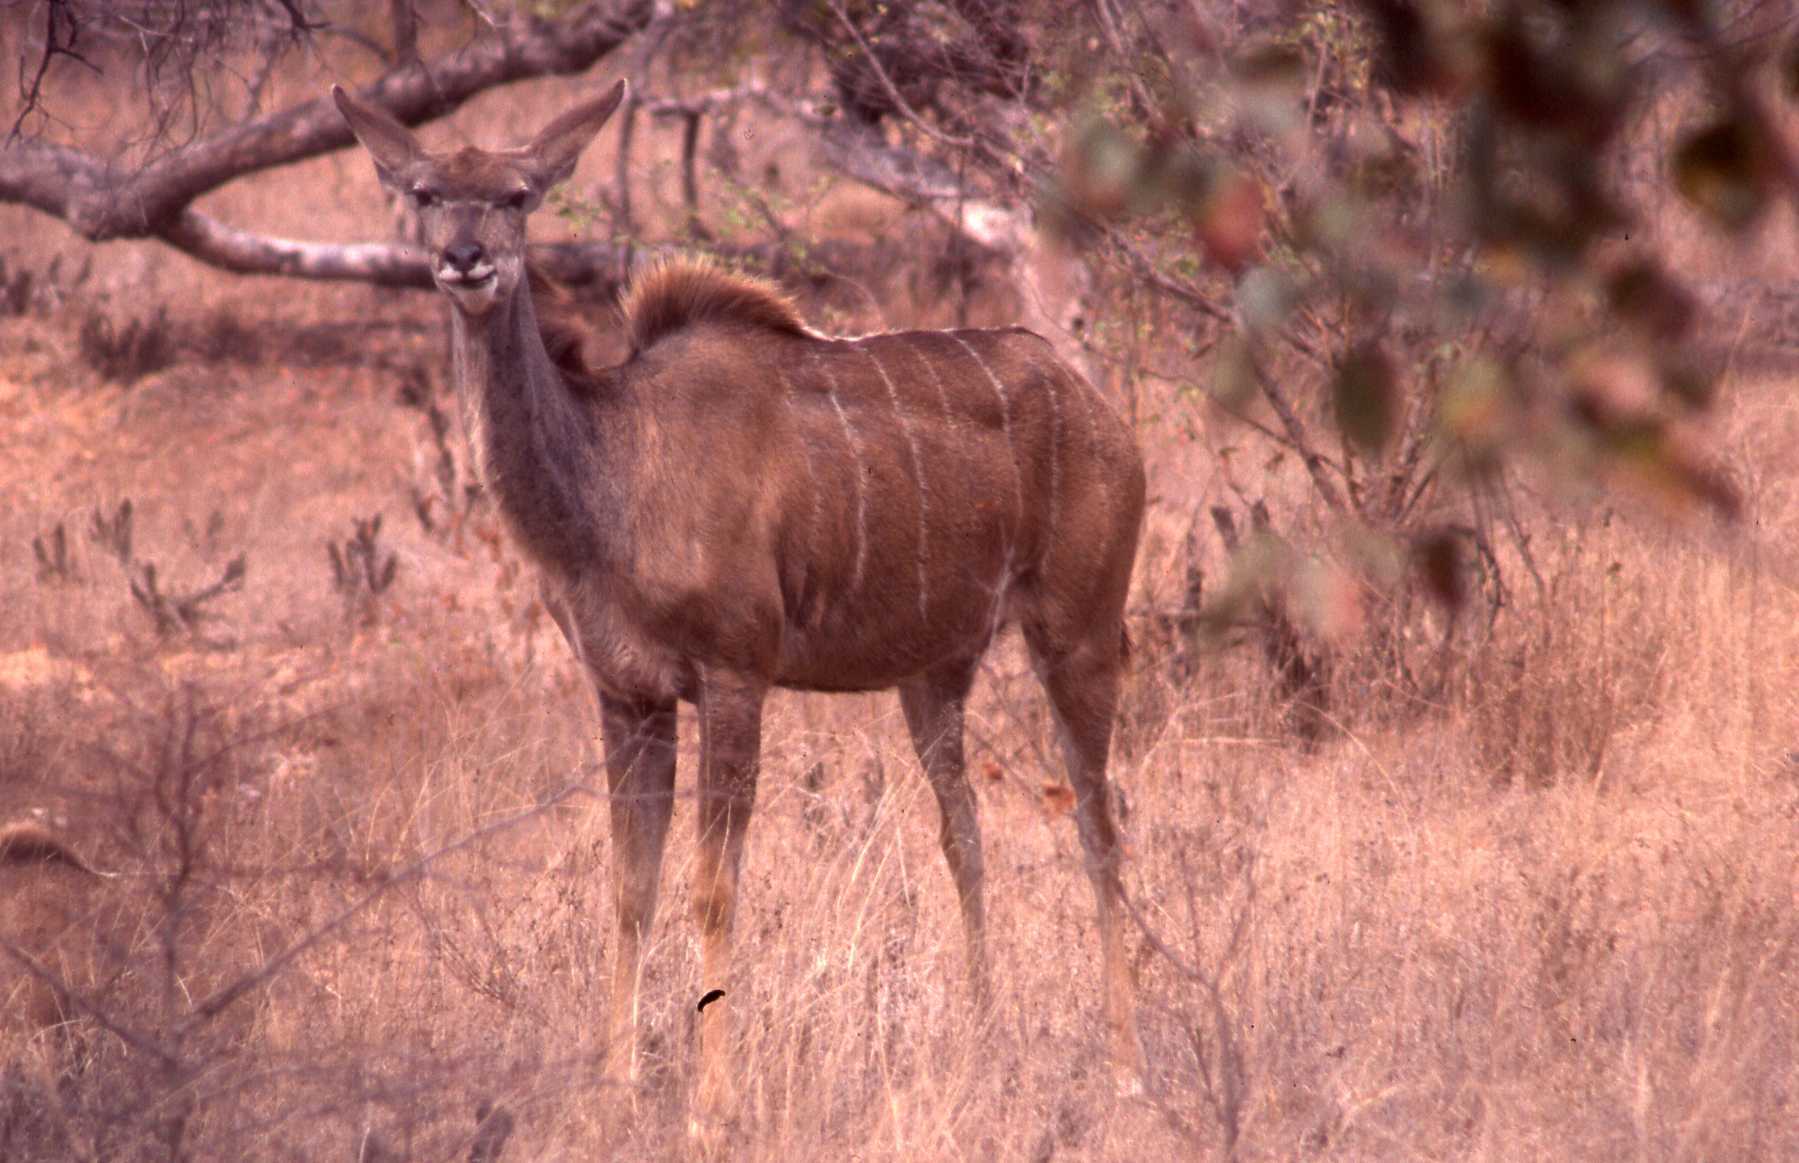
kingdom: Animalia
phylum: Chordata
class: Mammalia
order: Artiodactyla
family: Bovidae
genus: Tragelaphus
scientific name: Tragelaphus strepsiceros
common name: Greater kudu
